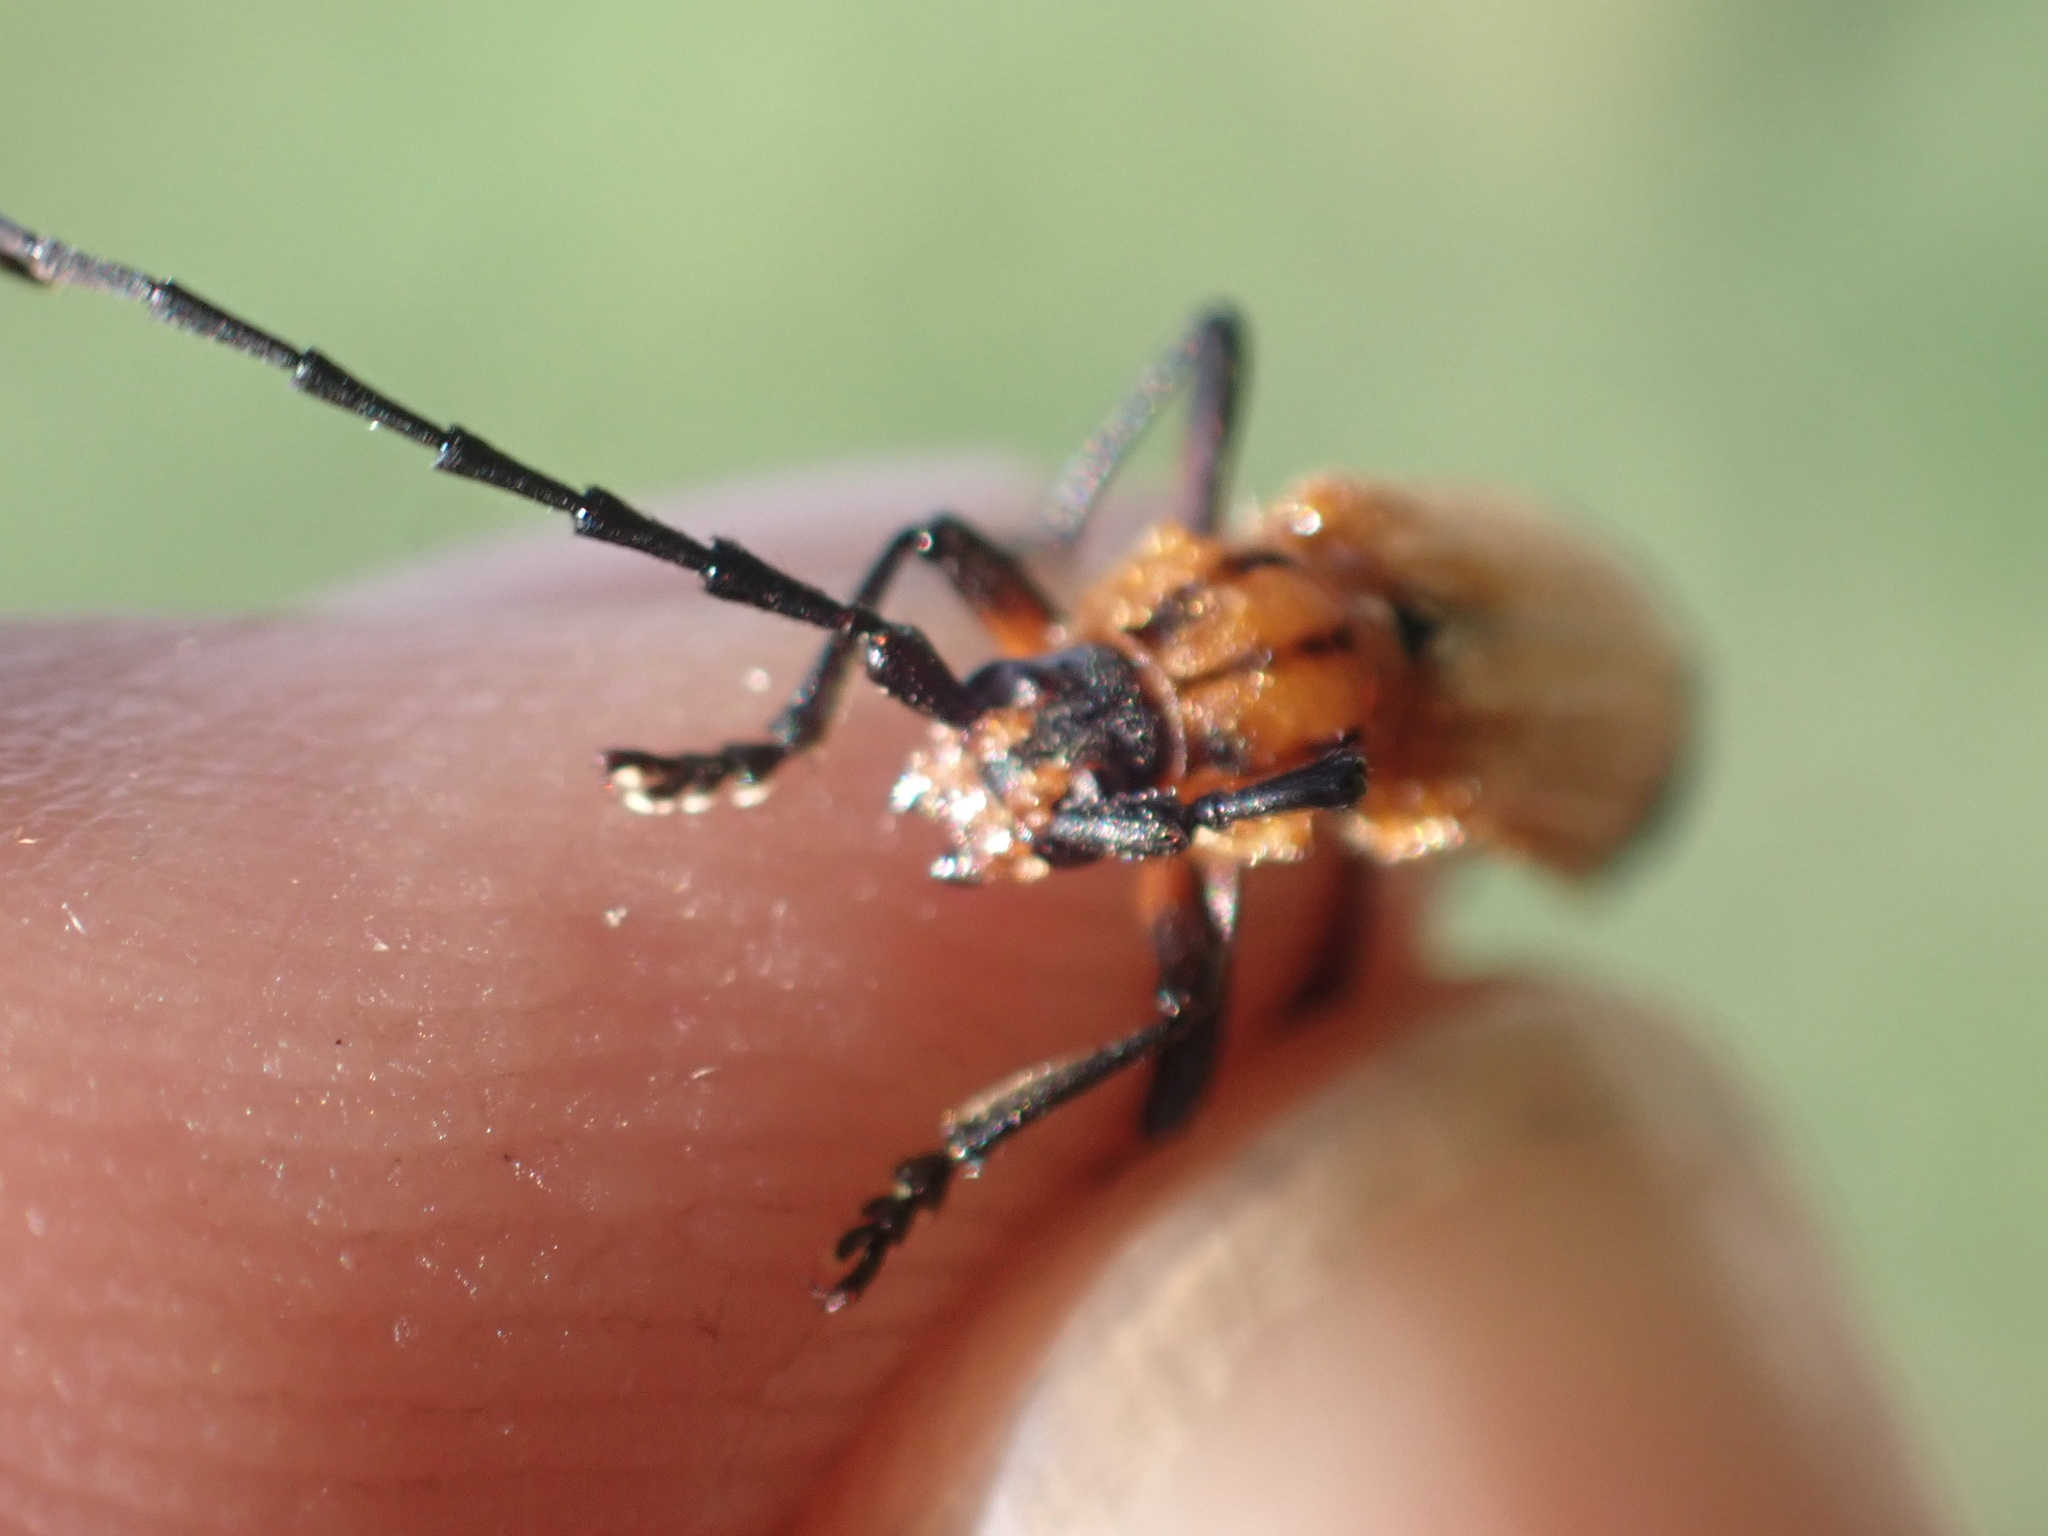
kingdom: Animalia
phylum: Arthropoda
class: Insecta
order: Coleoptera
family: Cerambycidae
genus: Amphidesmus
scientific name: Amphidesmus analis
